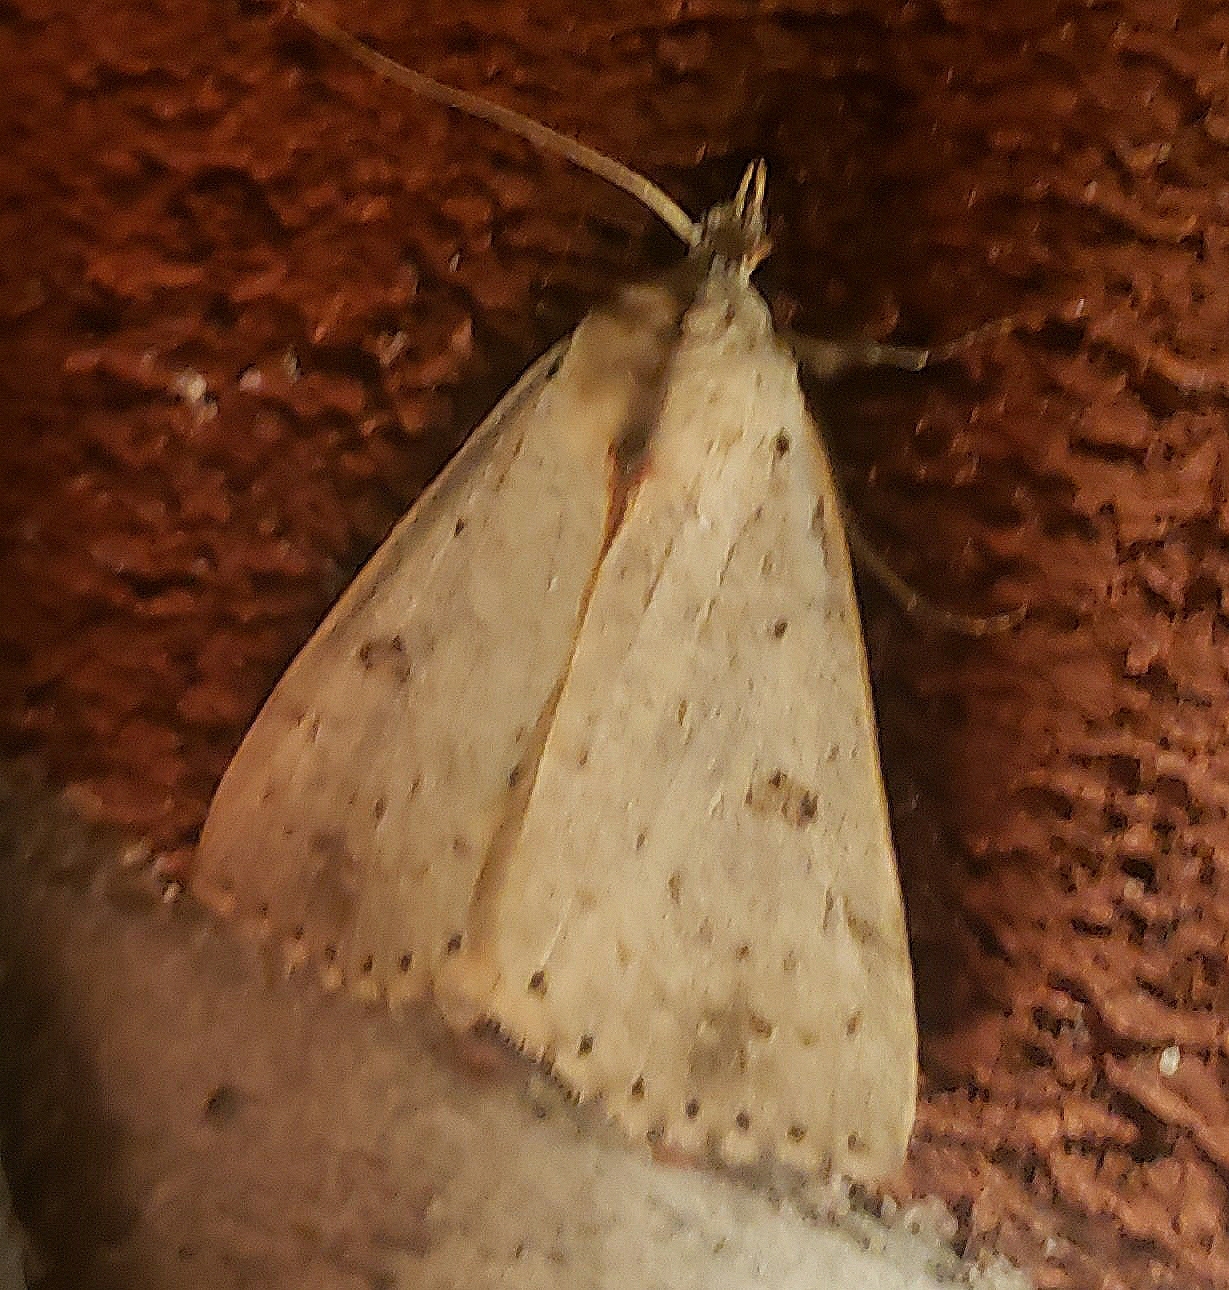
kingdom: Animalia
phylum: Arthropoda
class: Insecta
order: Lepidoptera
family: Erebidae
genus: Scolecocampa
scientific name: Scolecocampa liburna
